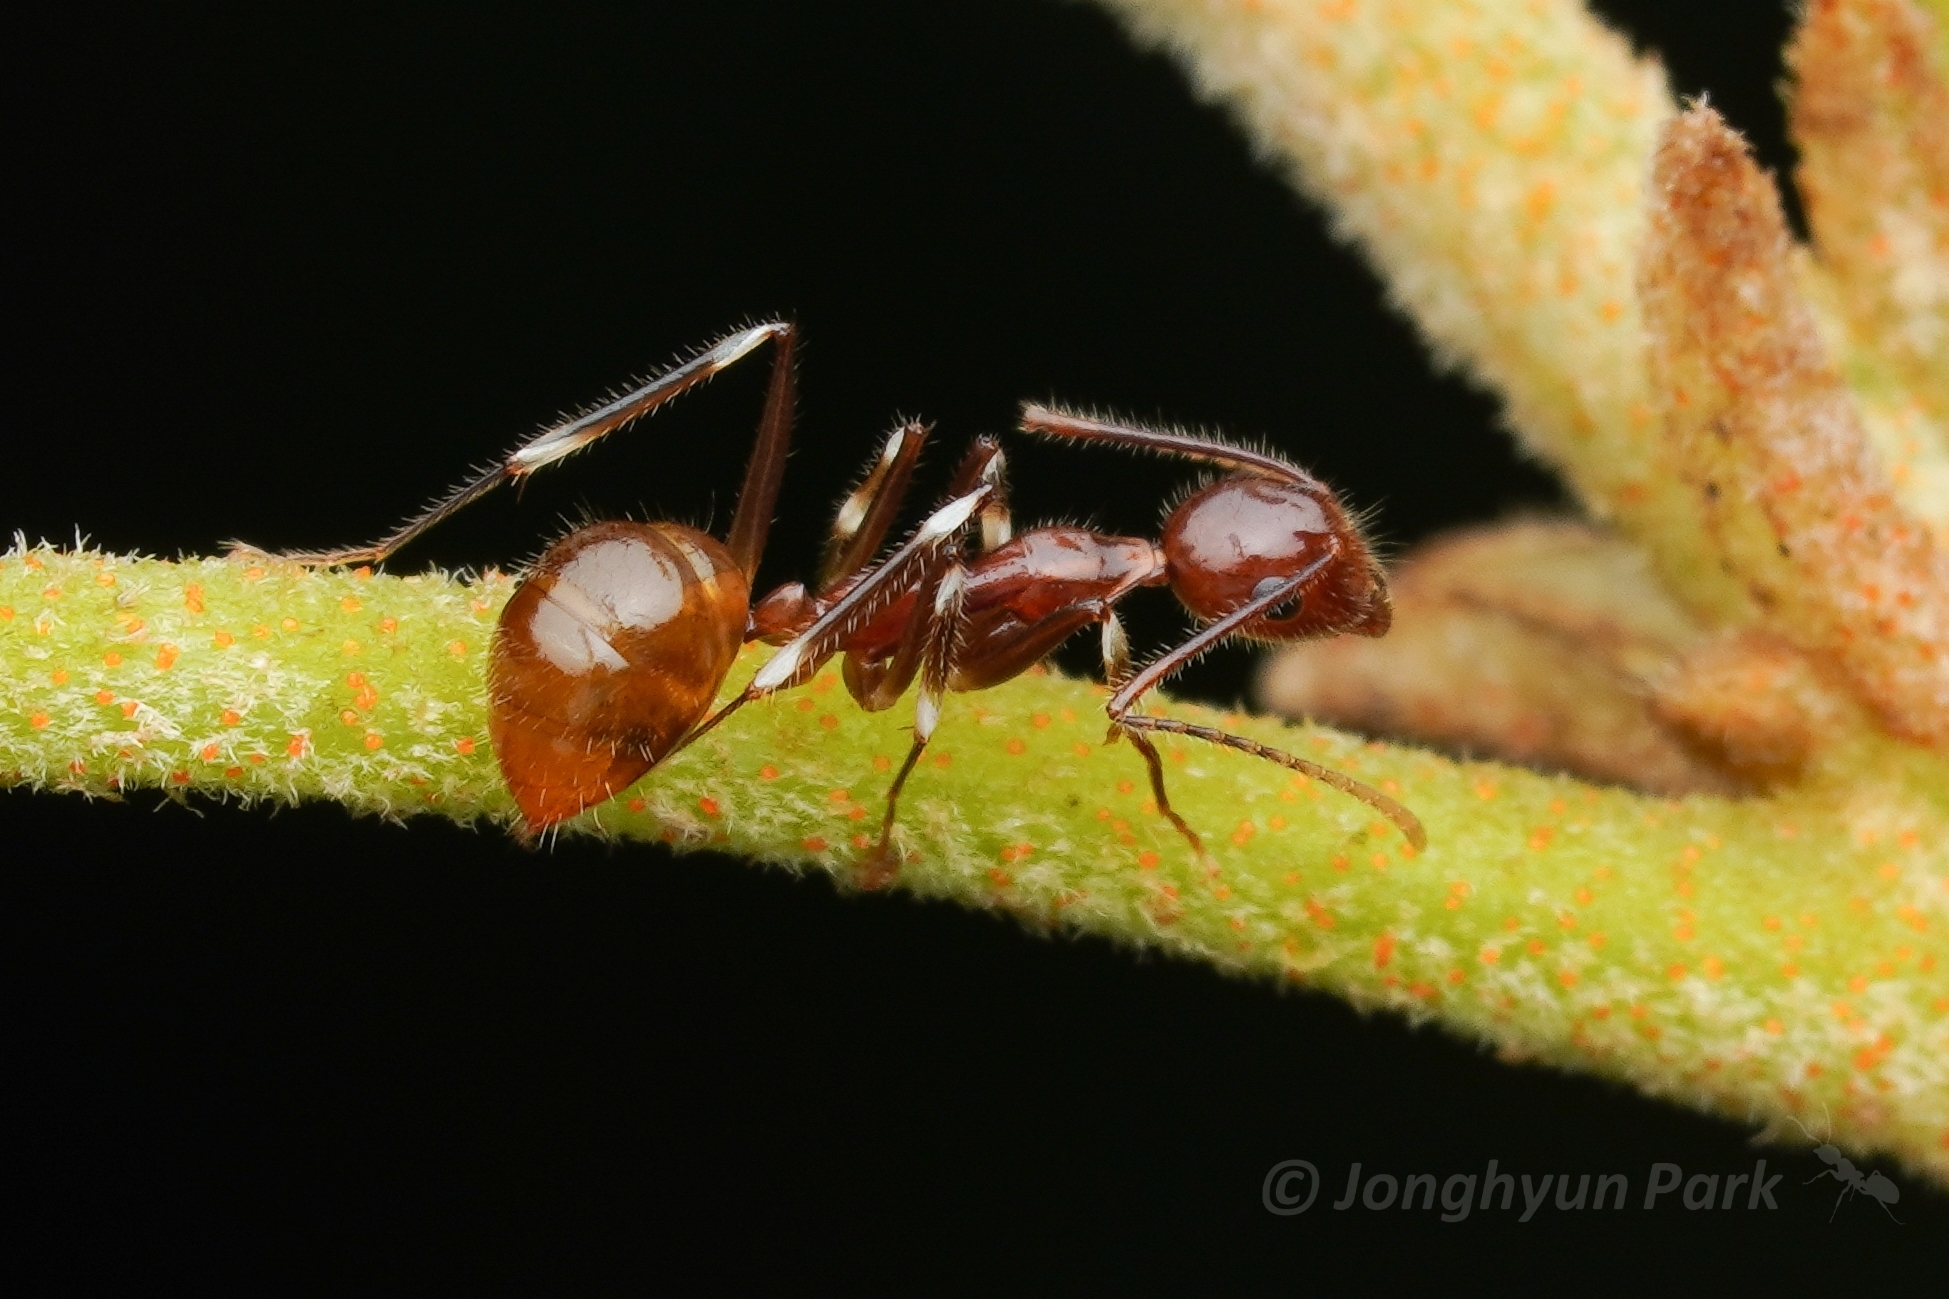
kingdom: Animalia
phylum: Arthropoda
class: Insecta
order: Hymenoptera
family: Formicidae
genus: Camponotus
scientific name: Camponotus
